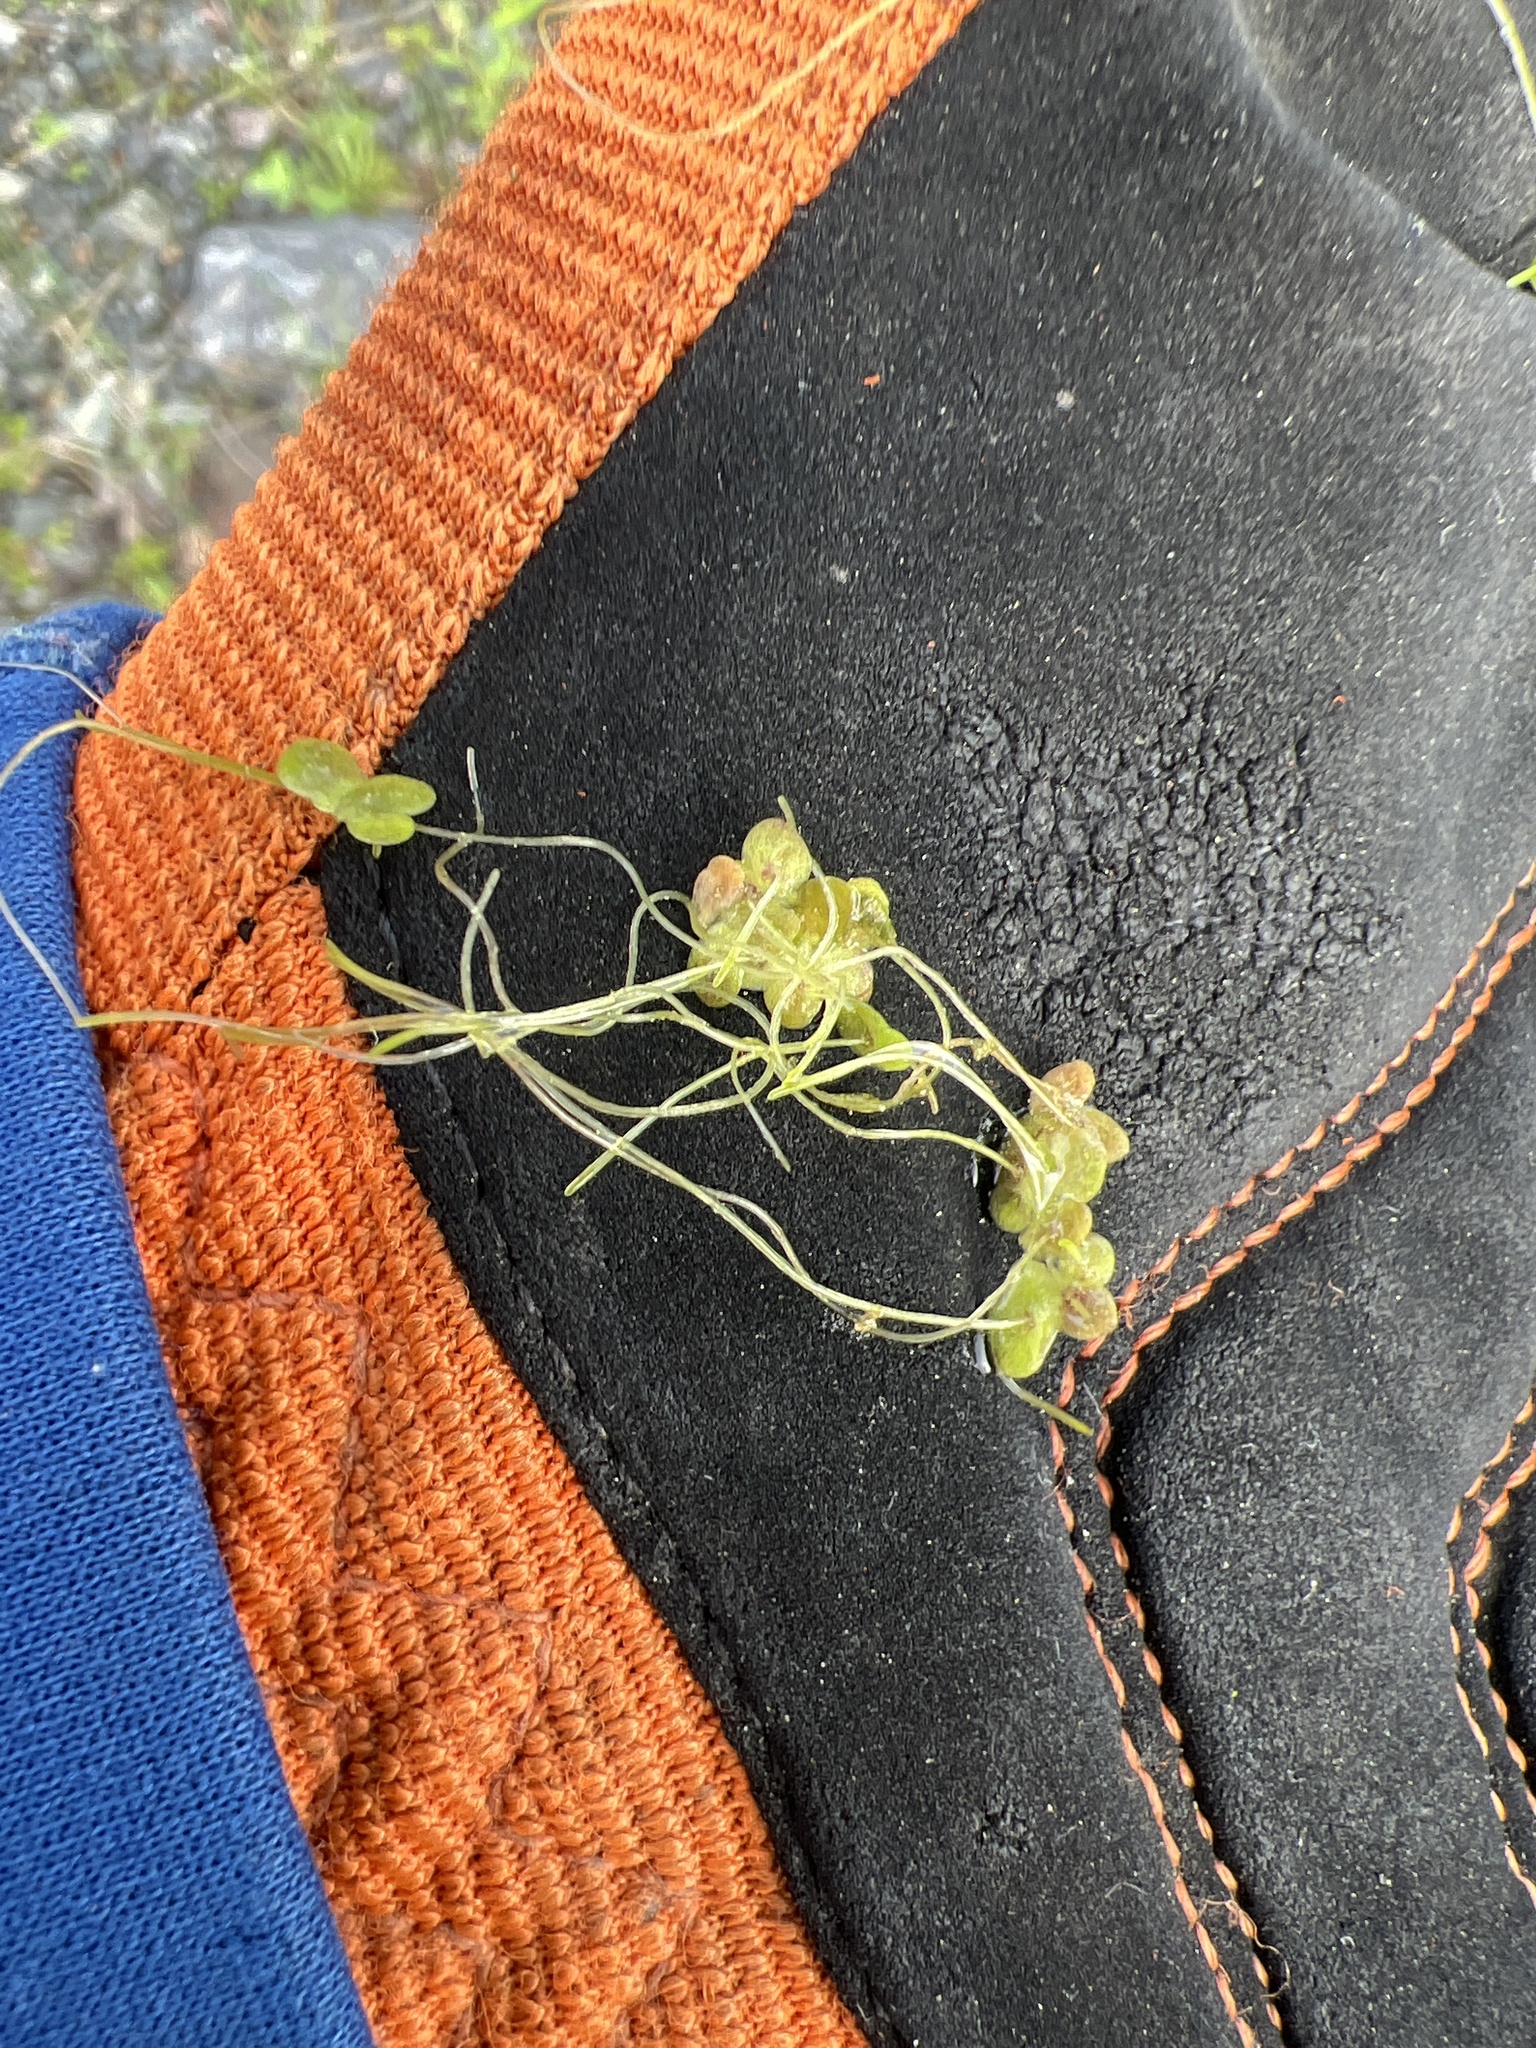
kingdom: Plantae
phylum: Tracheophyta
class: Liliopsida
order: Alismatales
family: Araceae
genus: Lemna
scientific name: Lemna turionifera
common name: Perennial duckweed
